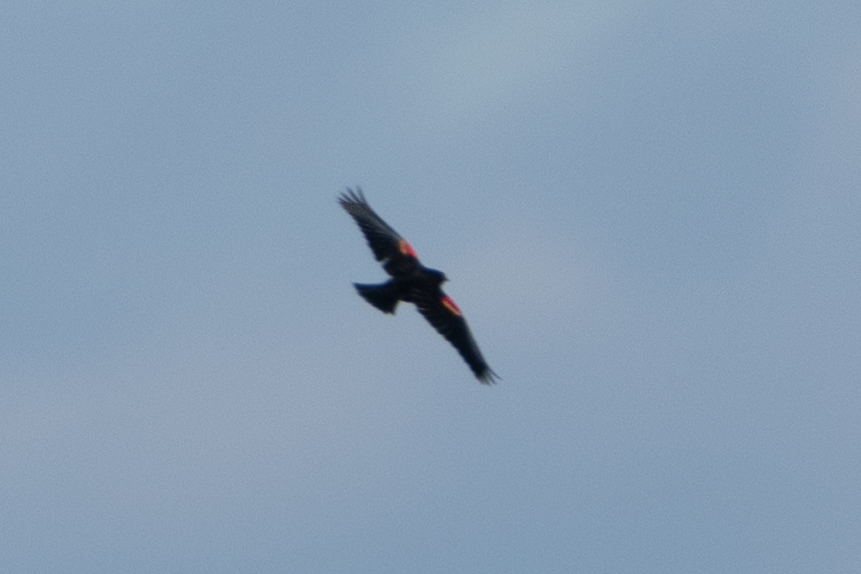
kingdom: Animalia
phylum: Chordata
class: Aves
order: Passeriformes
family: Icteridae
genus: Agelaius
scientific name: Agelaius phoeniceus
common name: Red-winged blackbird
